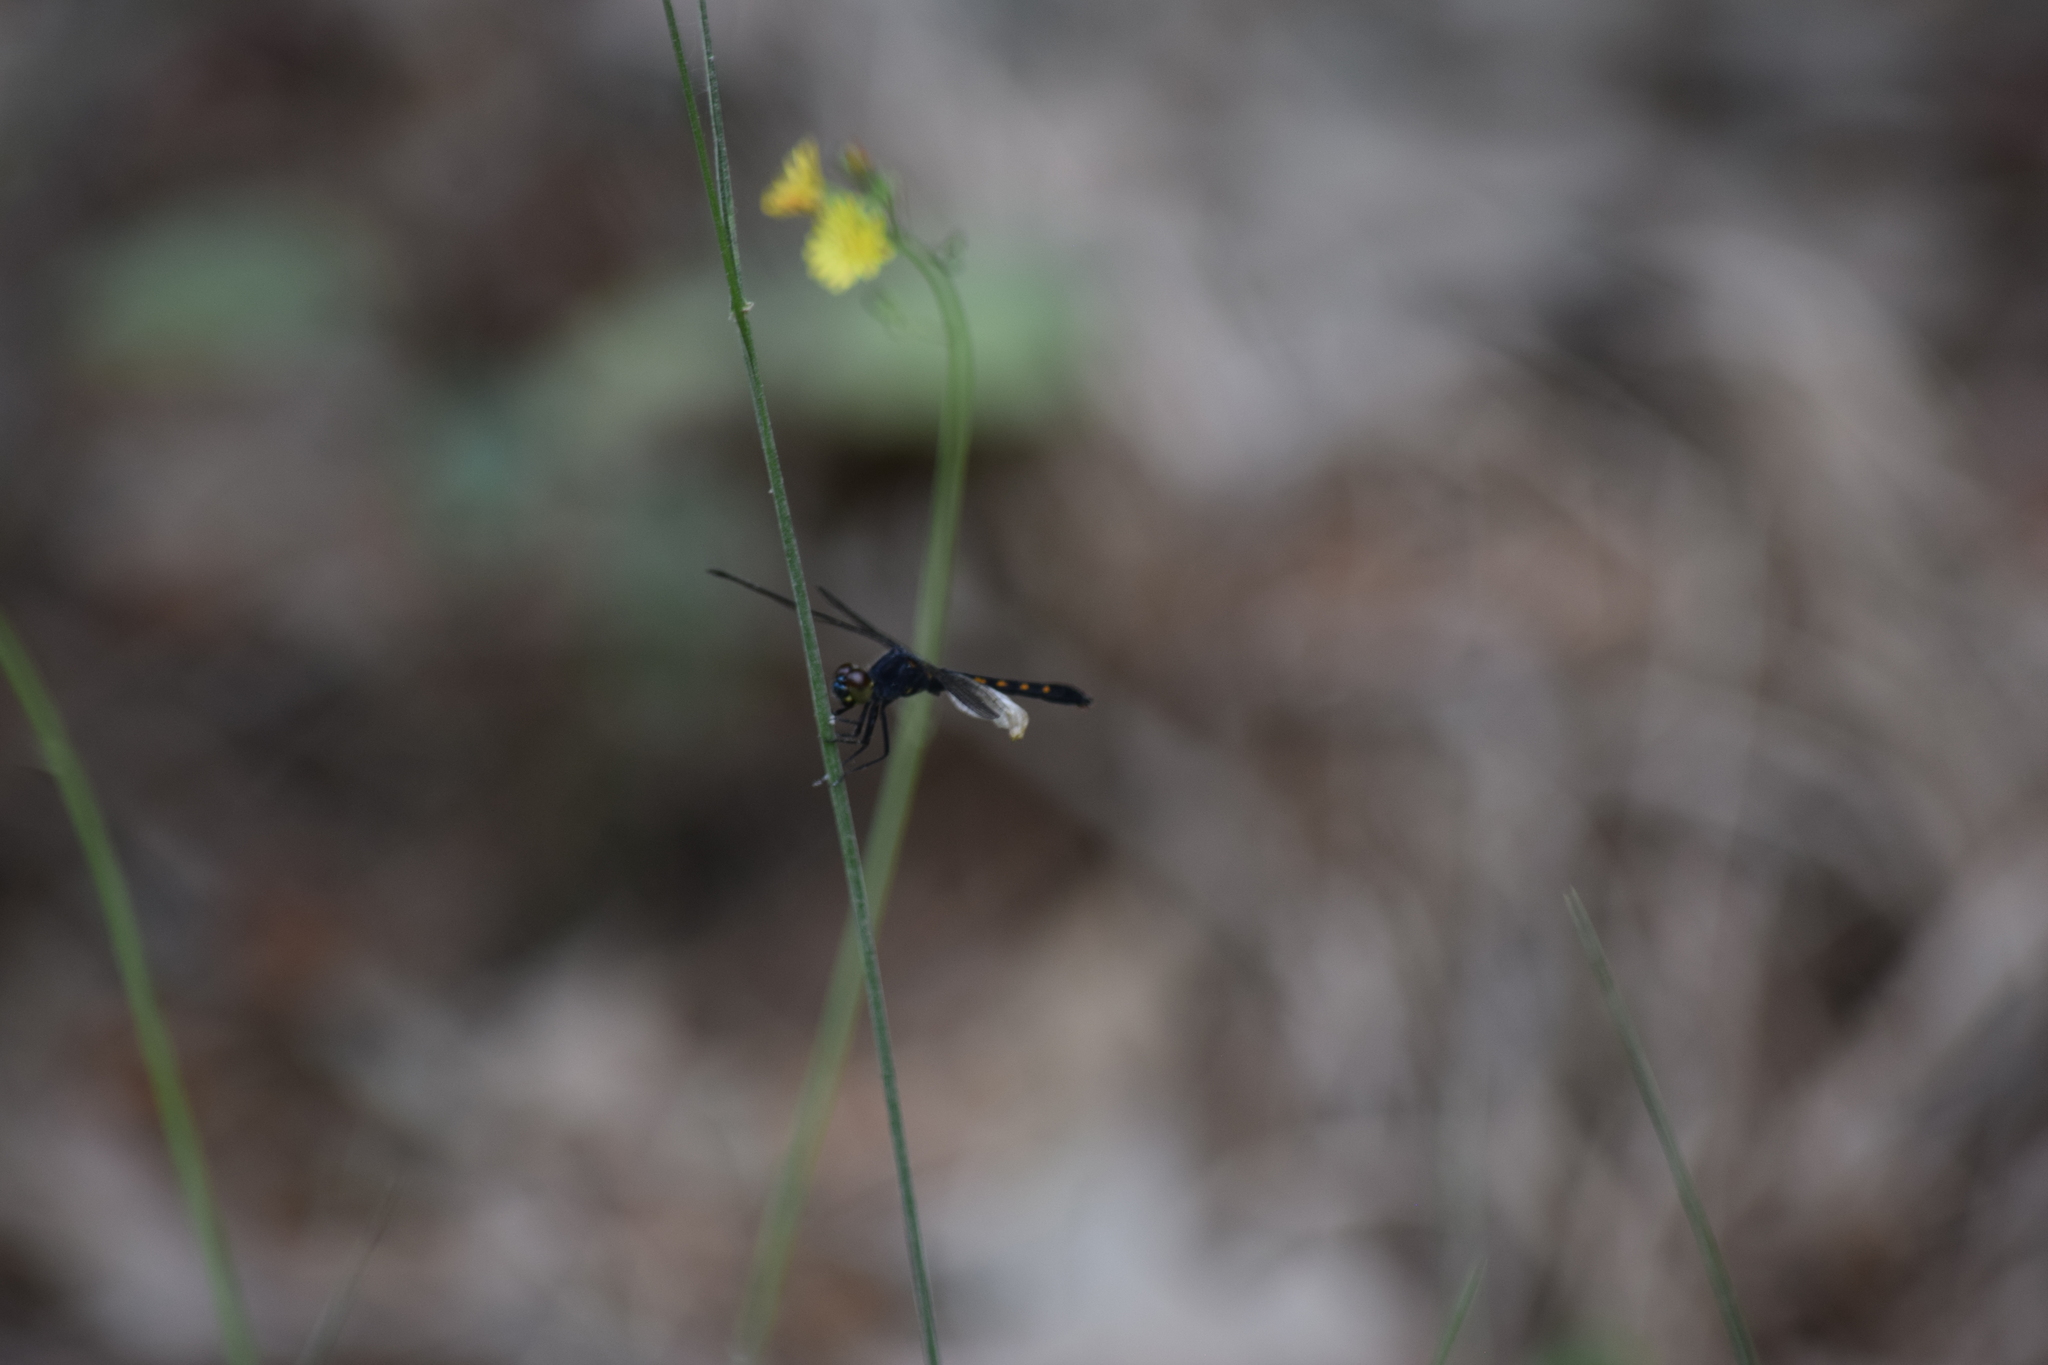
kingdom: Animalia
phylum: Arthropoda
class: Insecta
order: Odonata
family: Libellulidae
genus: Erythrodiplax
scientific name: Erythrodiplax berenice
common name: Seaside dragonlet
